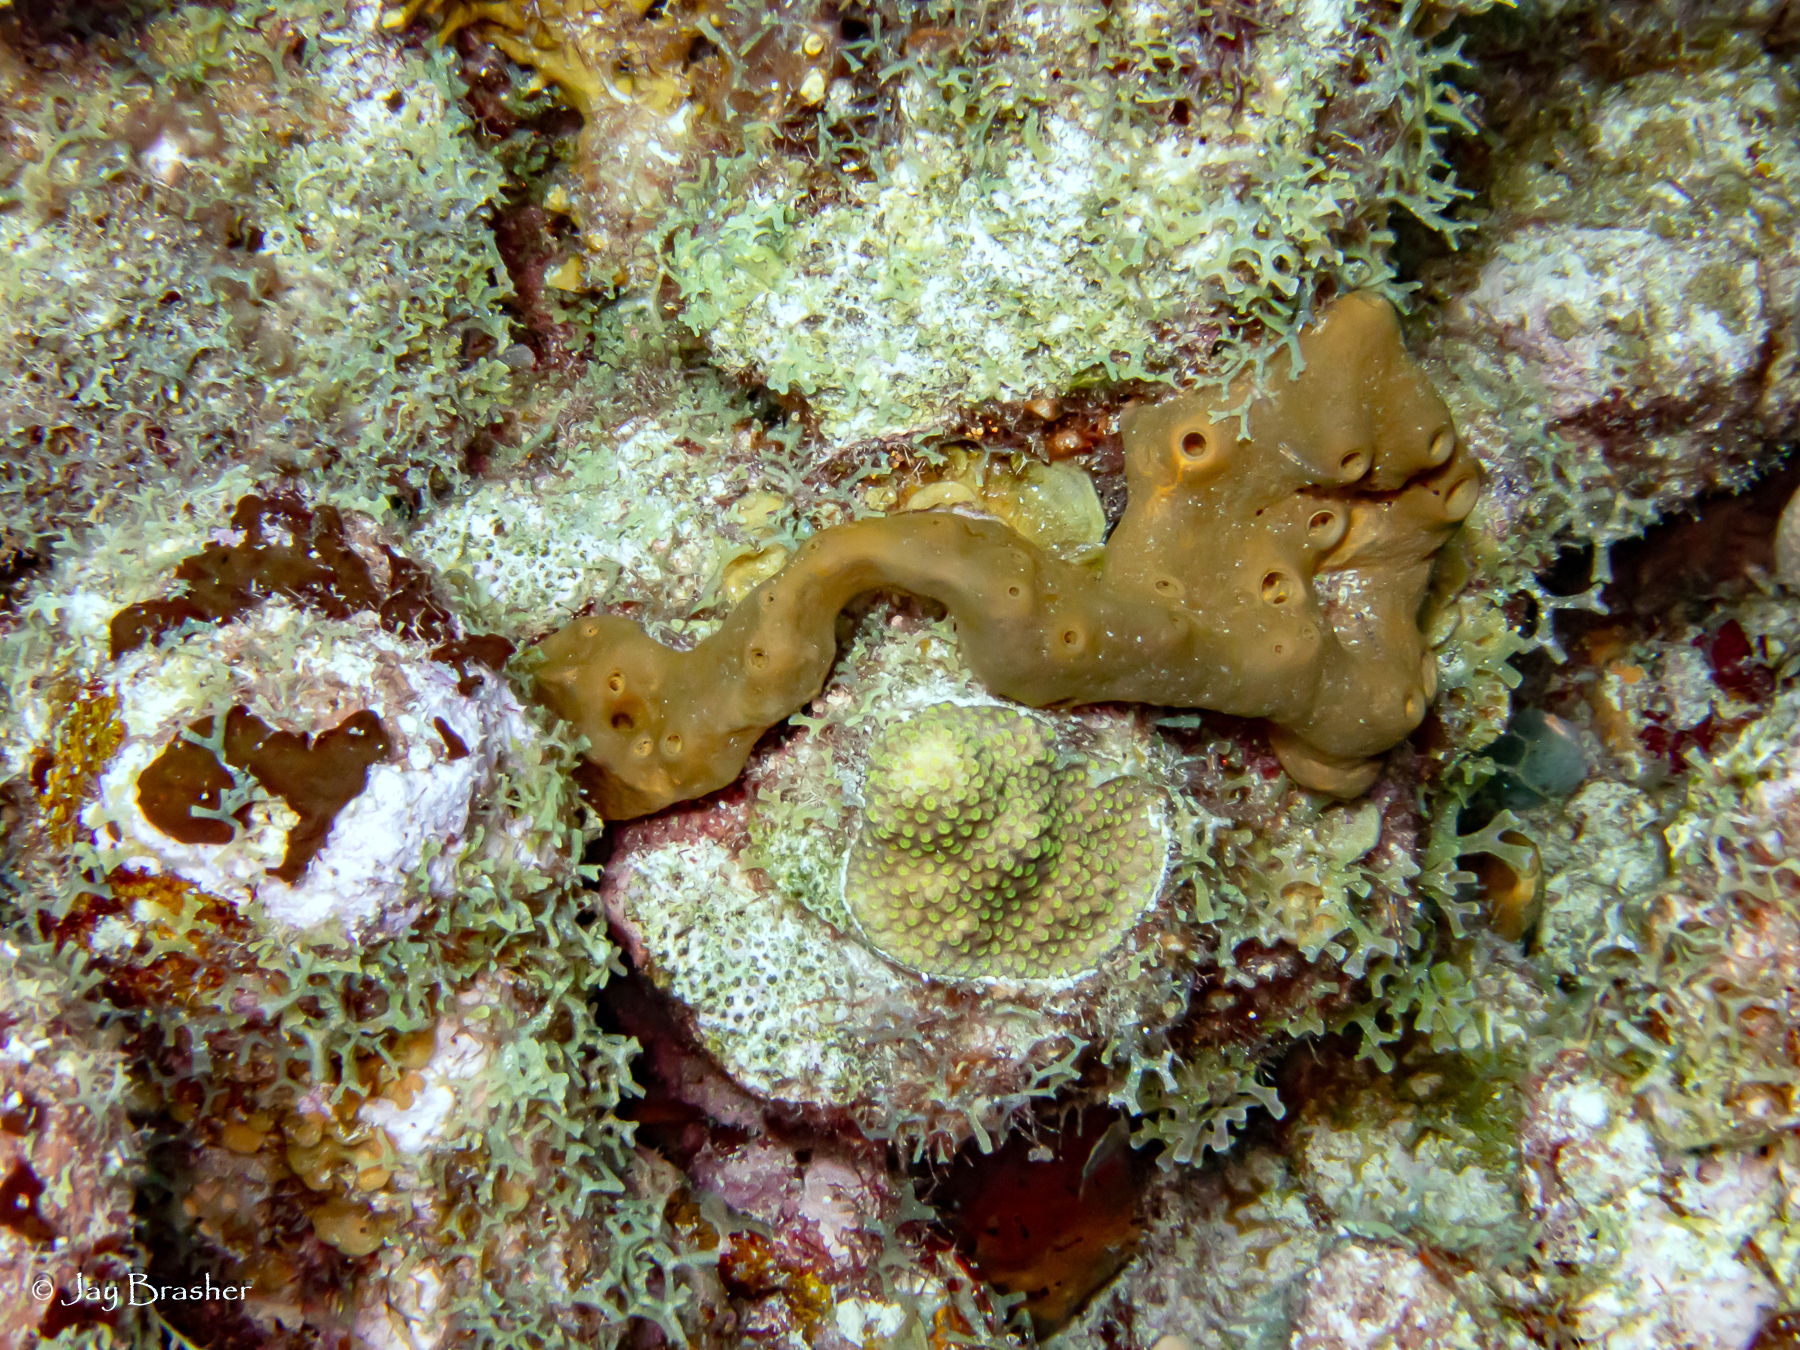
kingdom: Animalia
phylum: Porifera
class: Demospongiae
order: Agelasida
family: Agelasidae
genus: Agelas
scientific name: Agelas conifera
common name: Brown tube sponge
